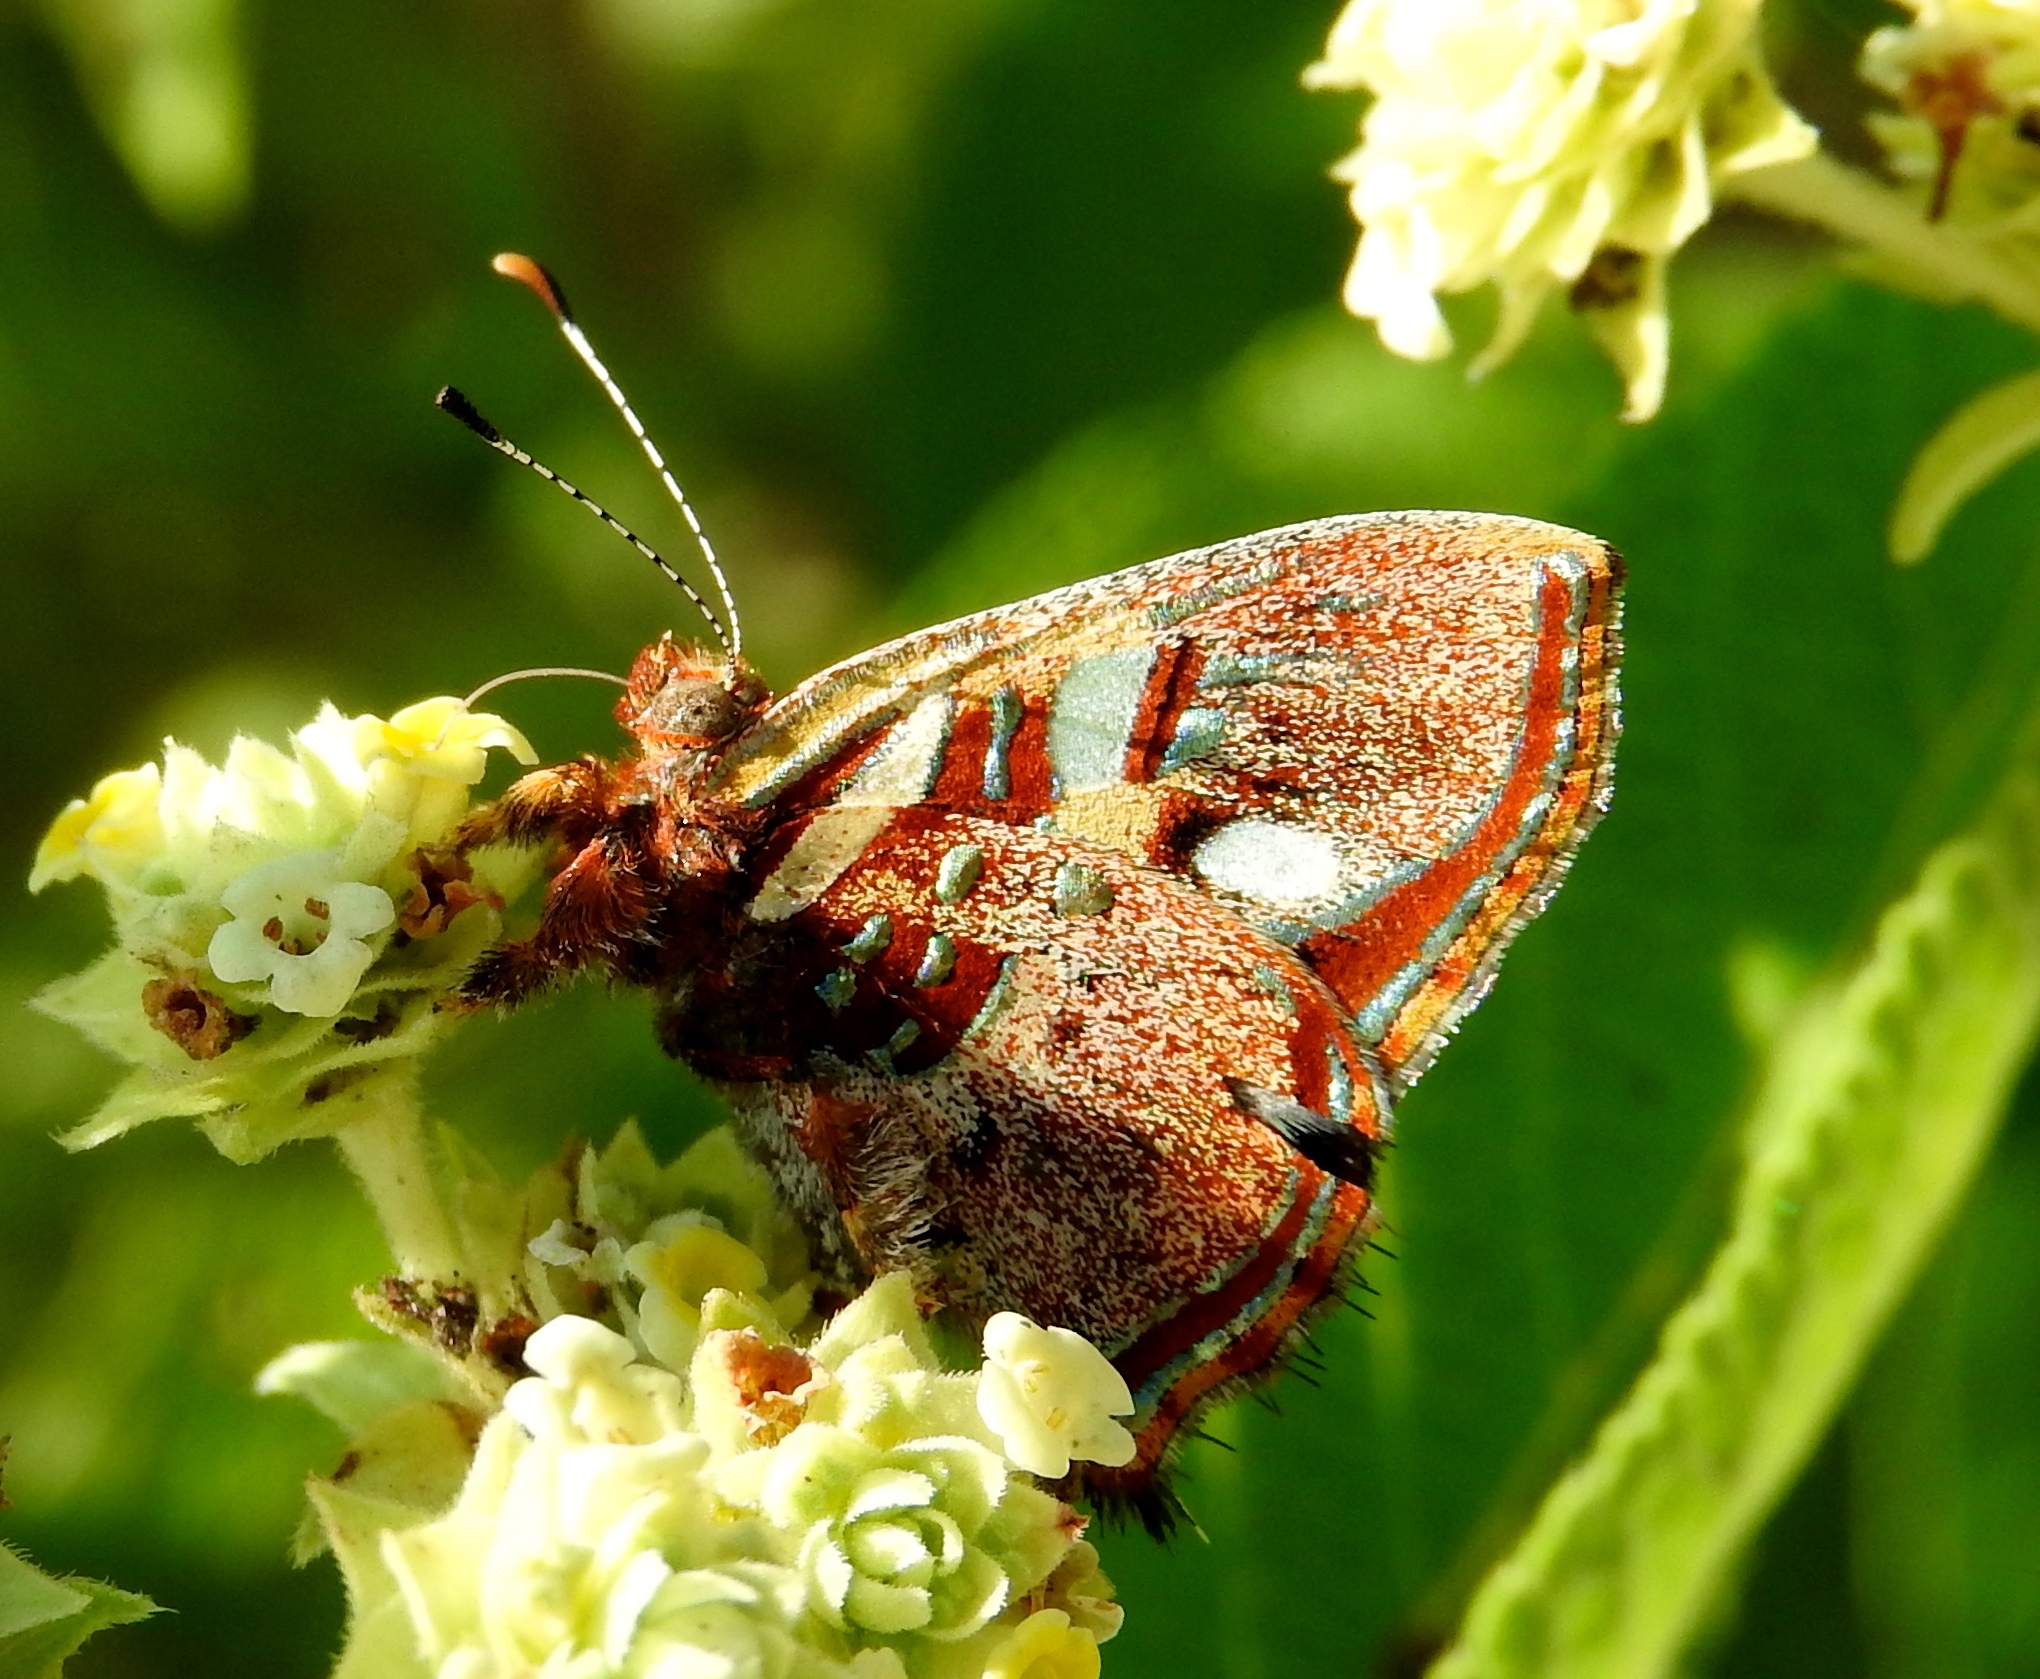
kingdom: Animalia
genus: Anteros
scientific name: Anteros carausius
